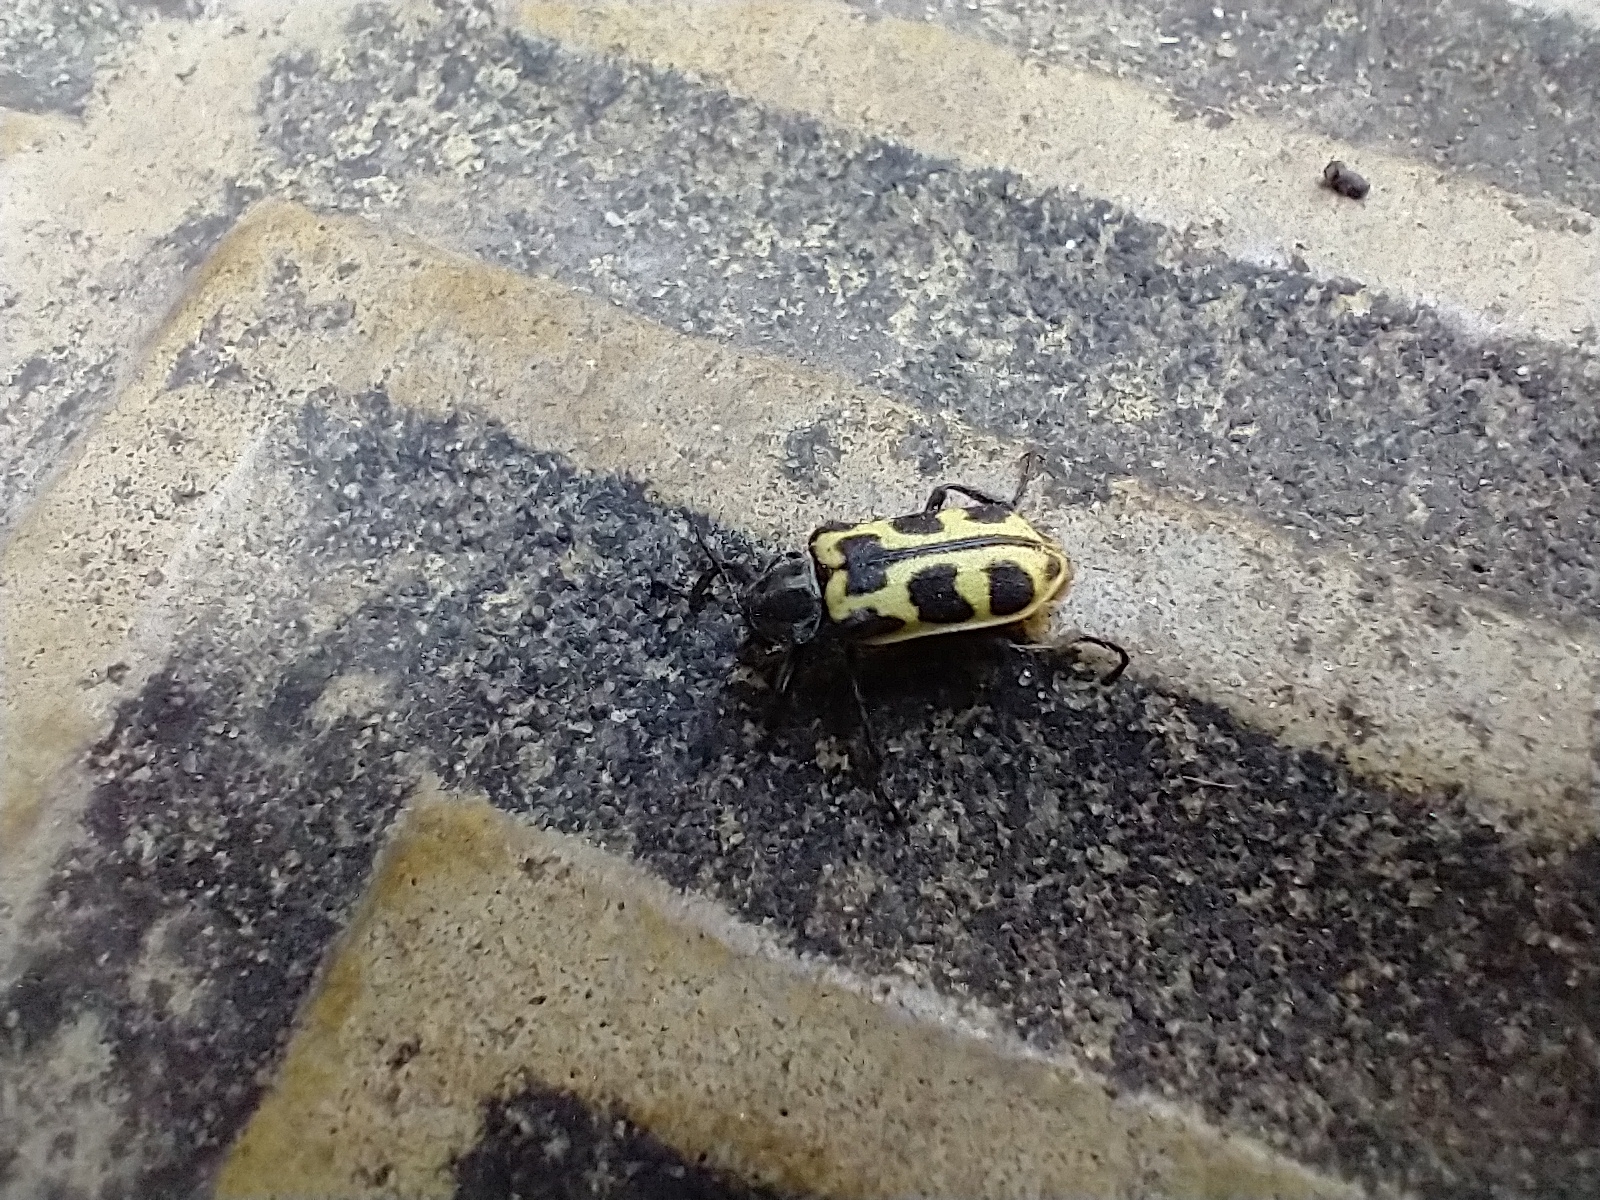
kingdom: Animalia
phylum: Arthropoda
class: Insecta
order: Coleoptera
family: Melyridae
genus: Astylus
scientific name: Astylus atromaculatus
